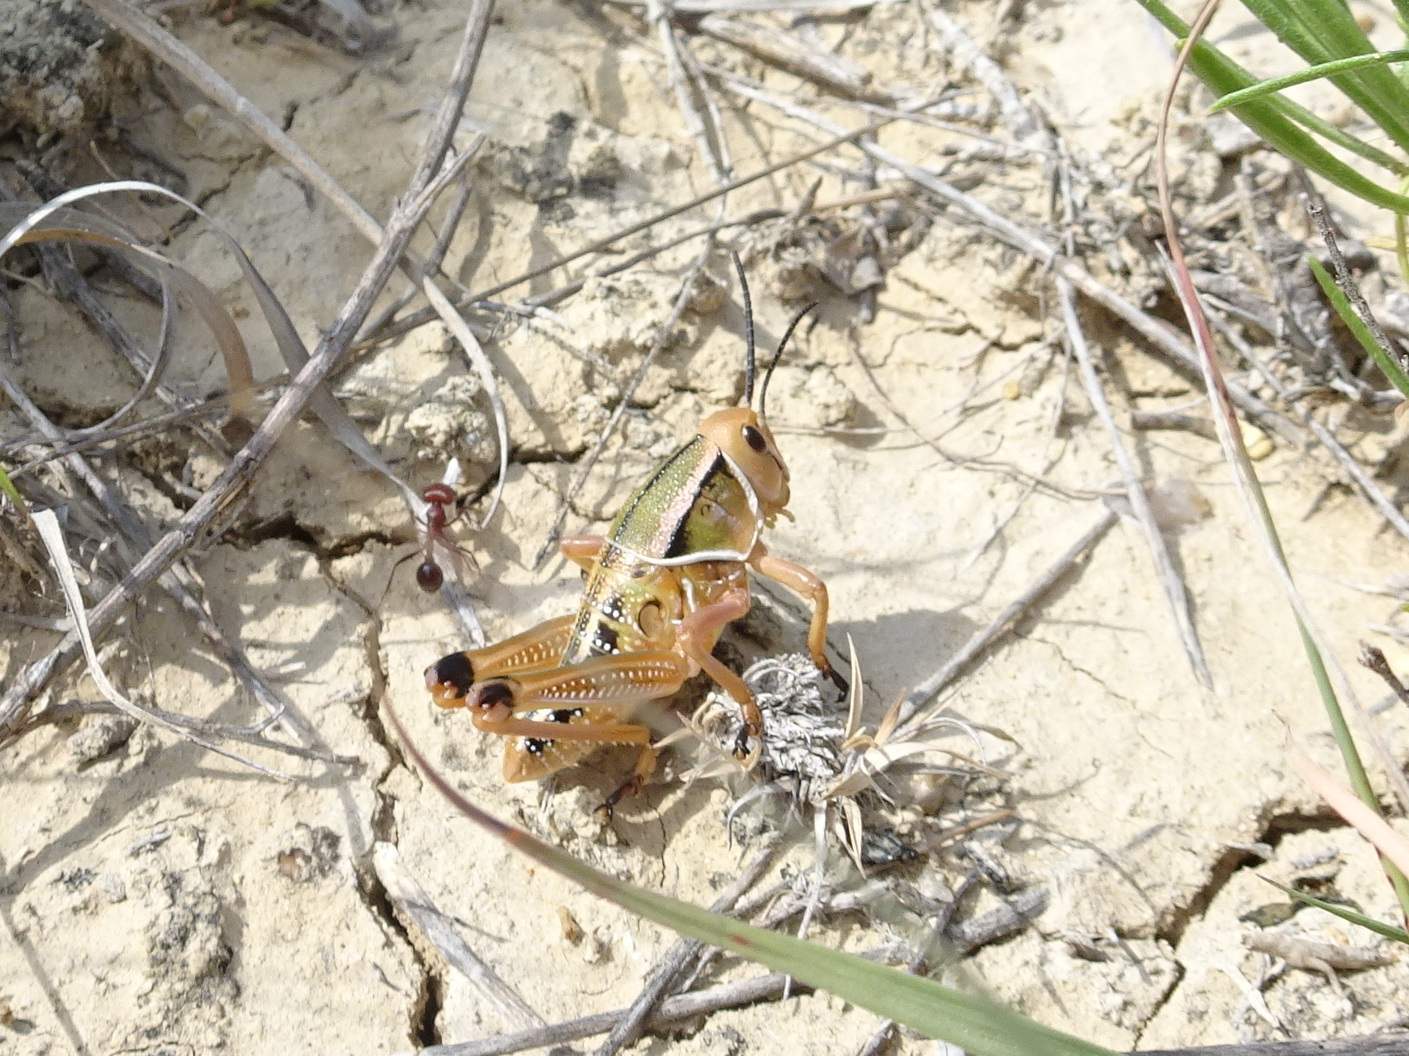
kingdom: Animalia
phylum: Arthropoda
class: Insecta
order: Orthoptera
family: Romaleidae
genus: Brachystola
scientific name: Brachystola magna
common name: Plains lubber grasshopper
